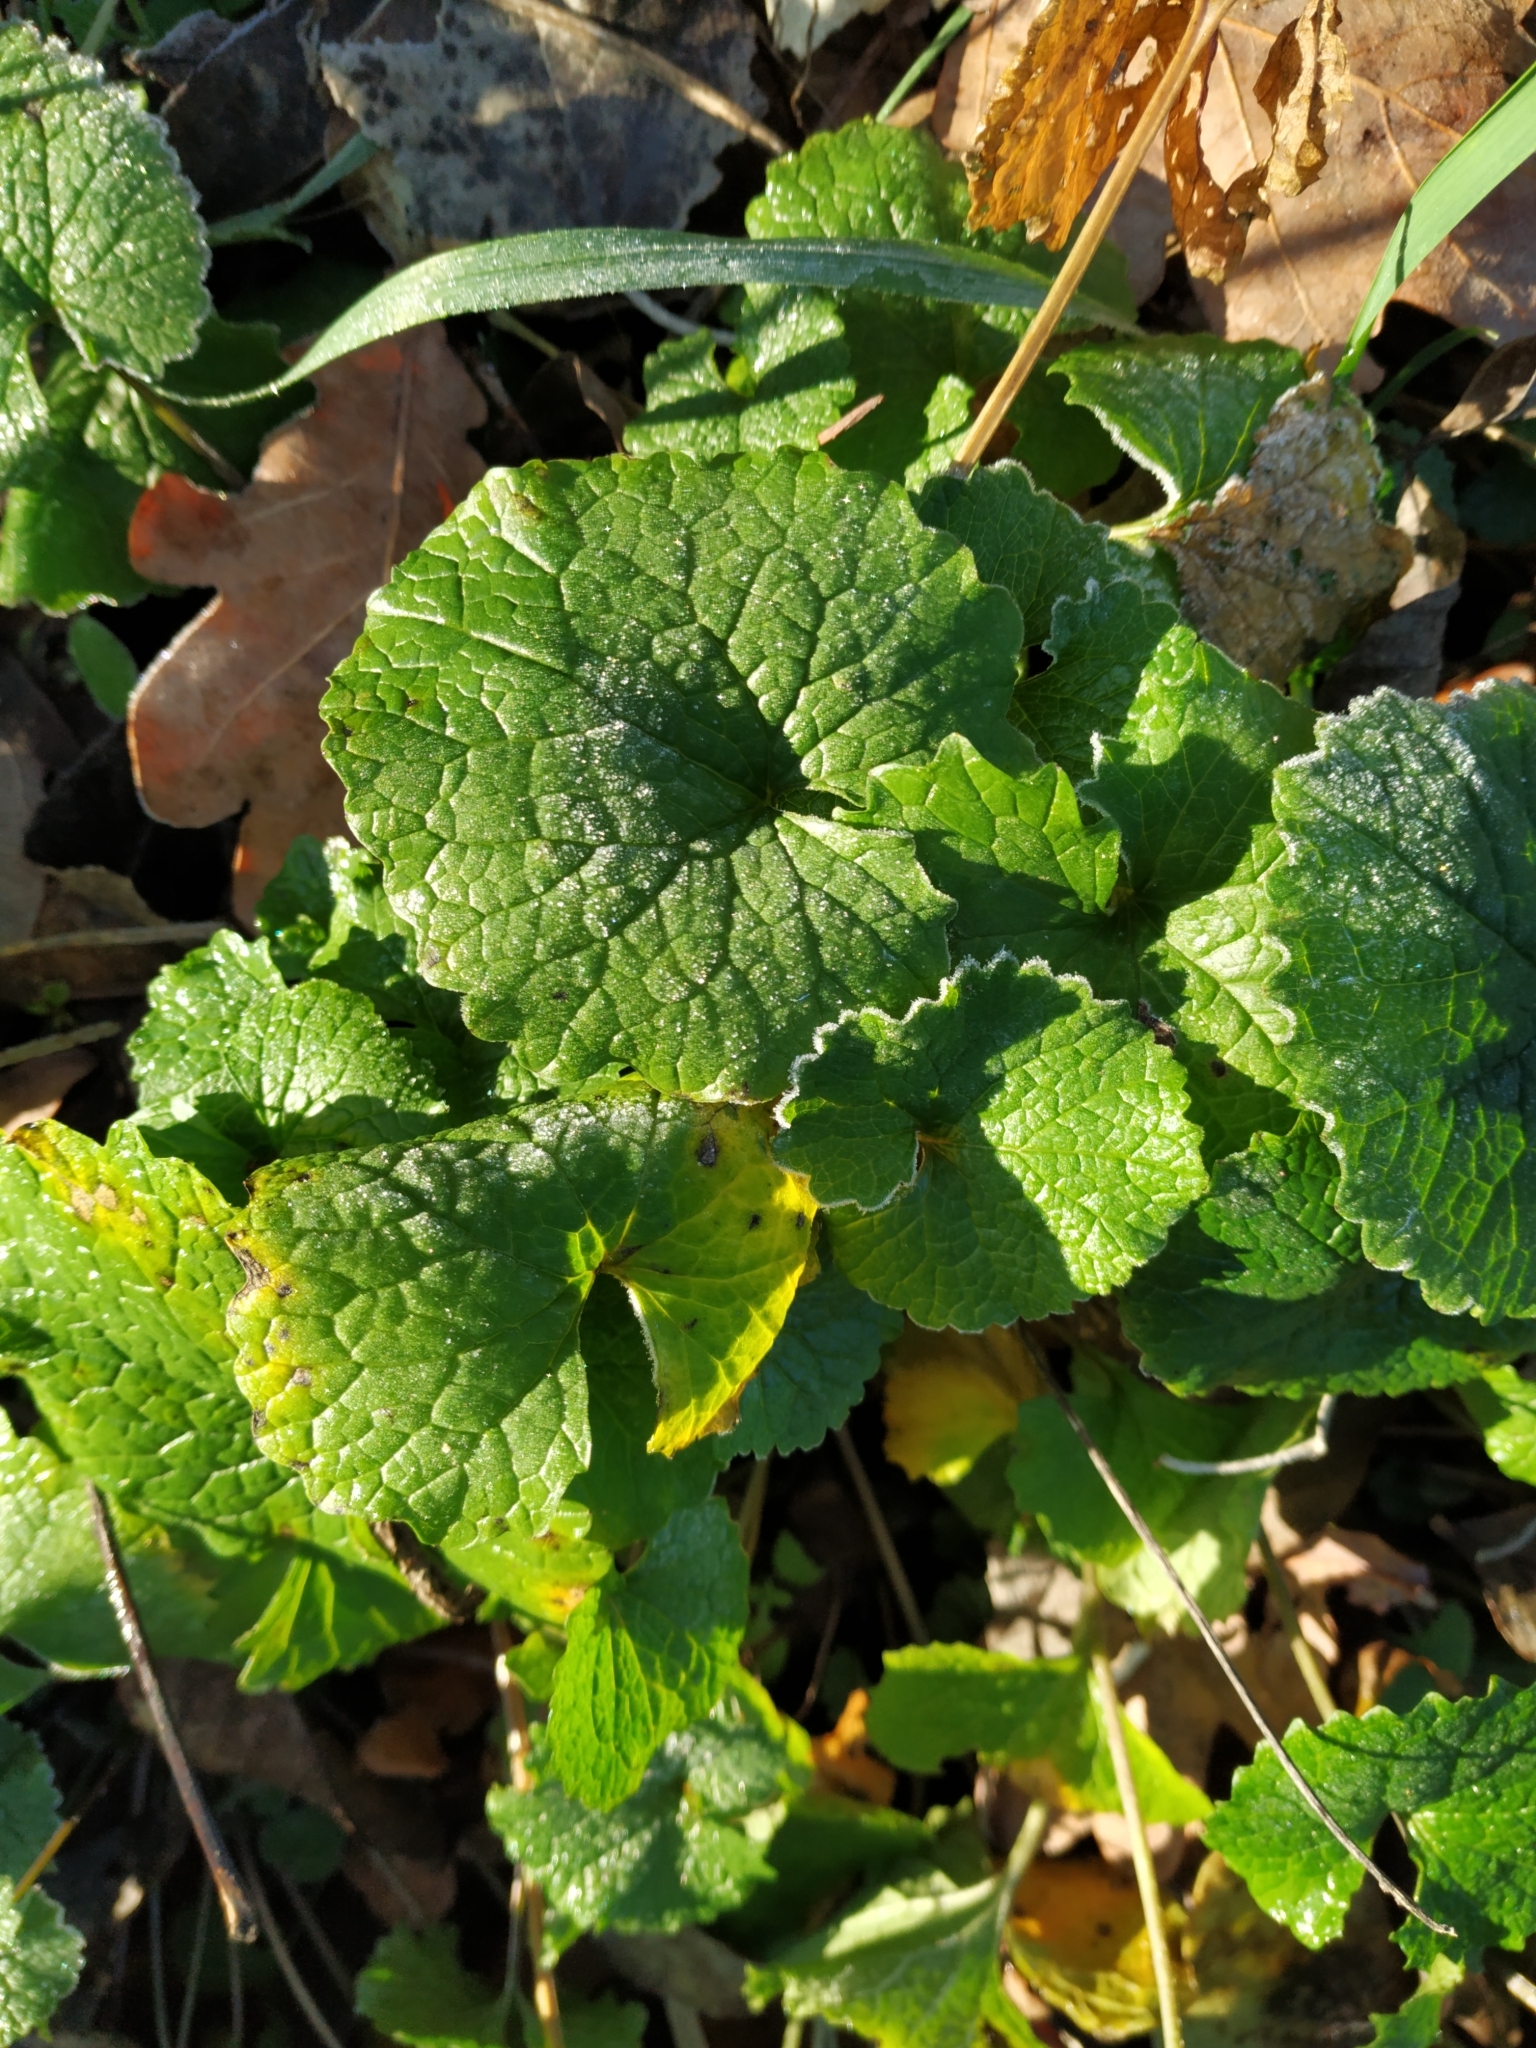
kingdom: Plantae
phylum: Tracheophyta
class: Magnoliopsida
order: Brassicales
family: Brassicaceae
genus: Alliaria
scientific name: Alliaria petiolata
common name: Garlic mustard
